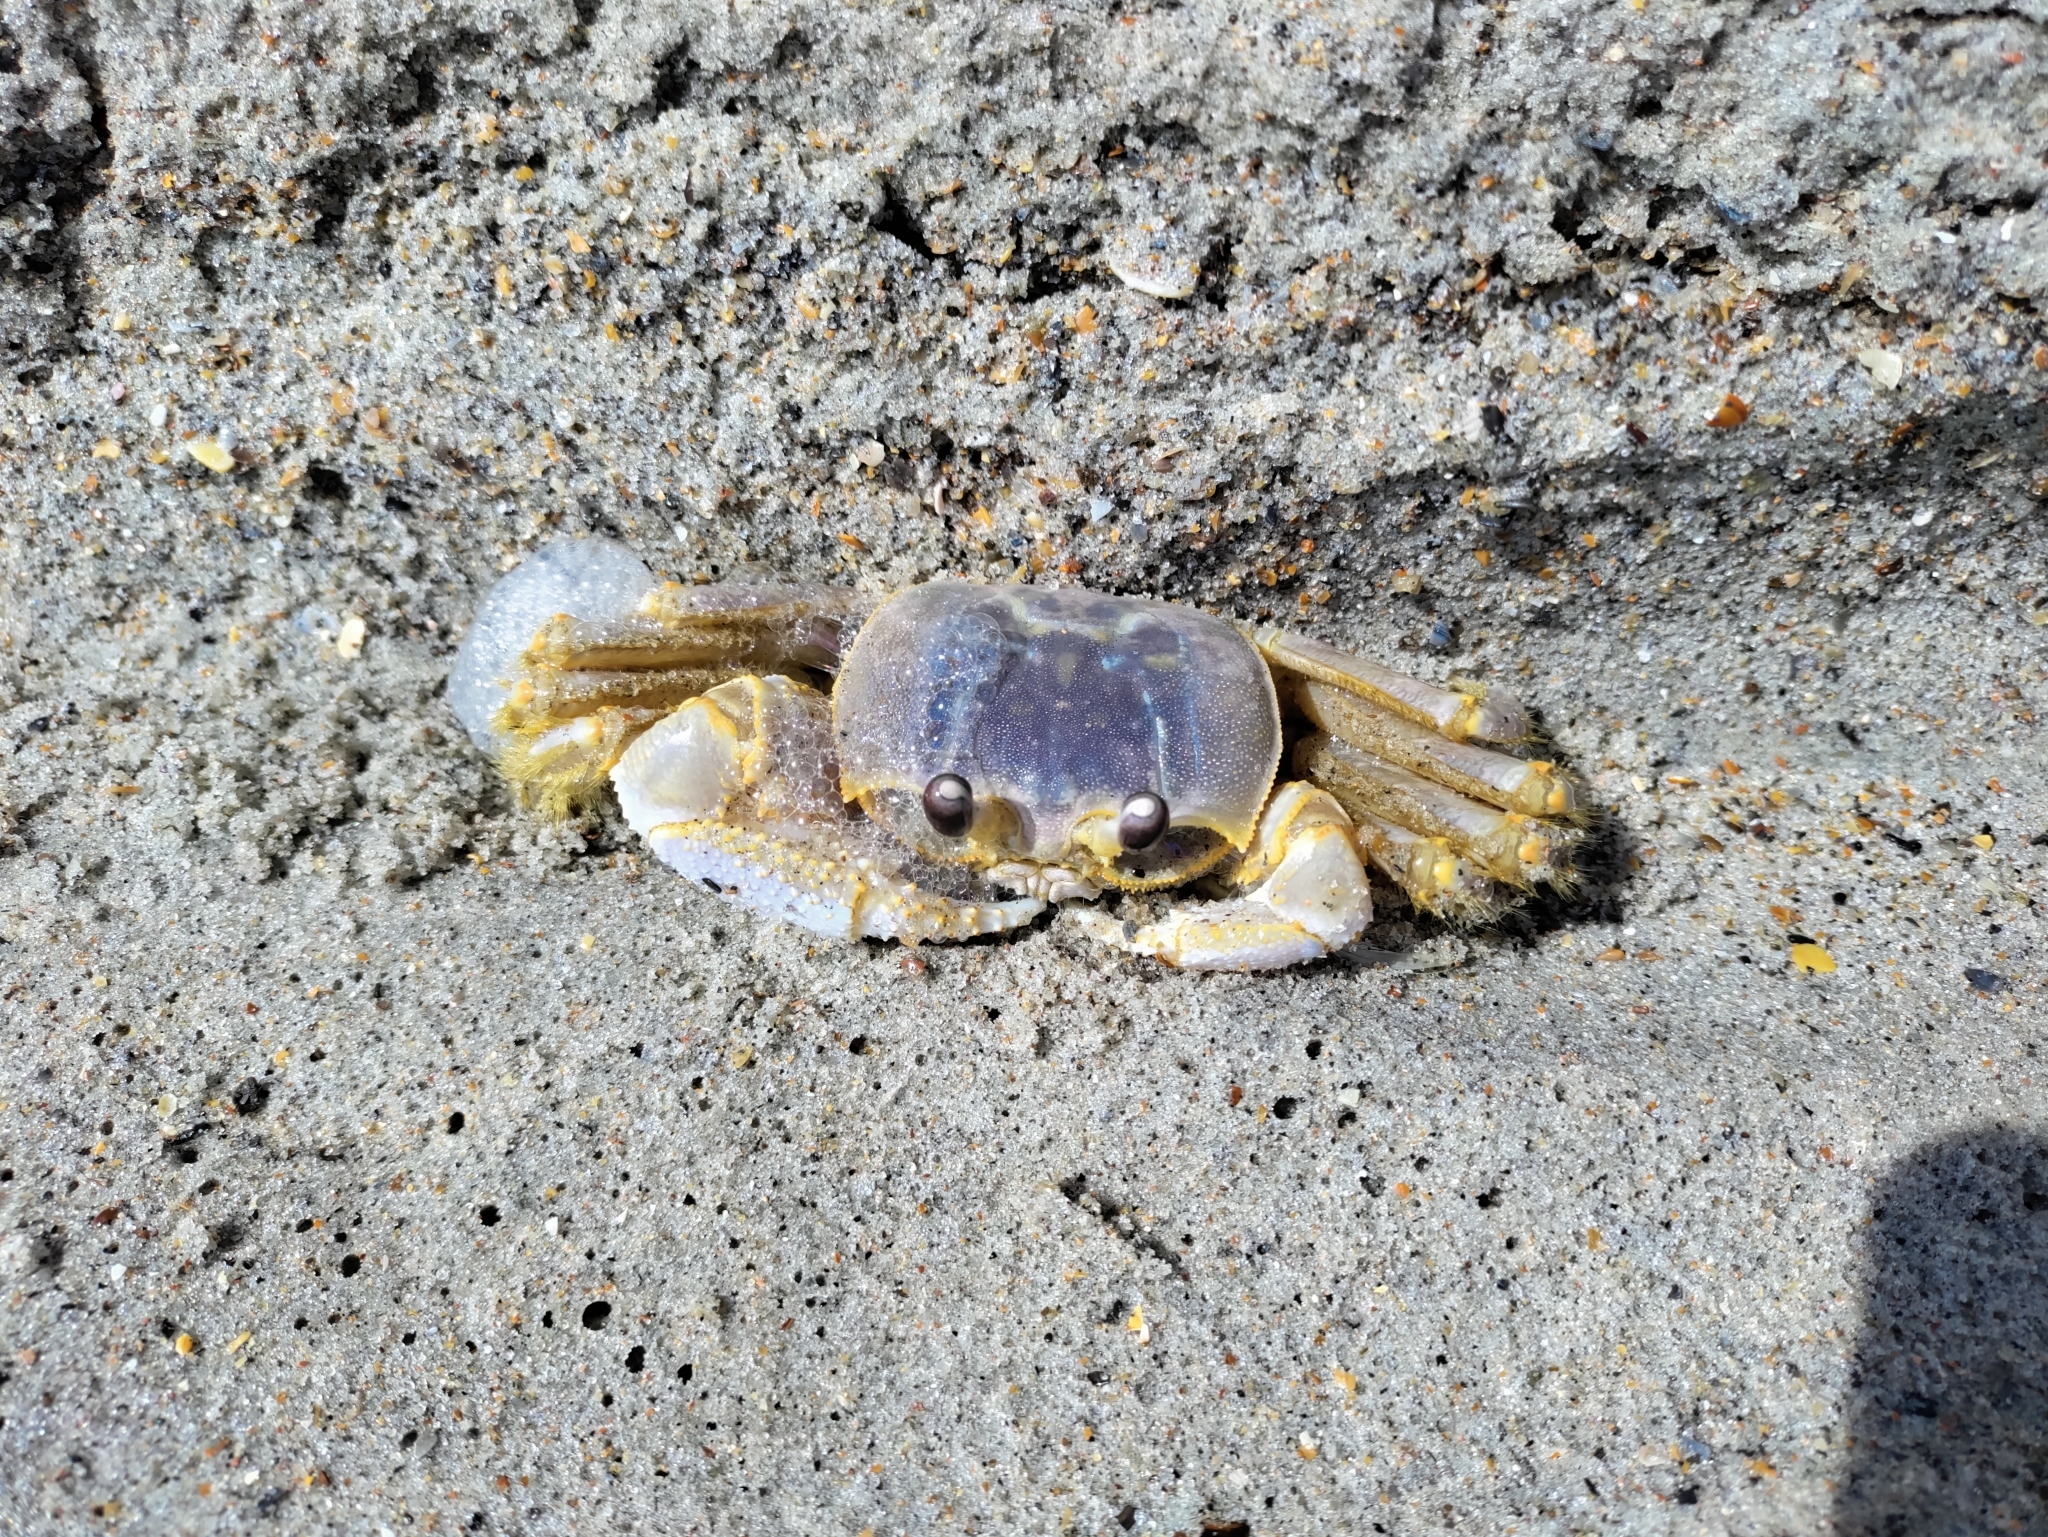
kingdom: Animalia
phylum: Arthropoda
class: Malacostraca
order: Decapoda
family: Ocypodidae
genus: Ocypode
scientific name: Ocypode quadrata
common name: Ghost crab
